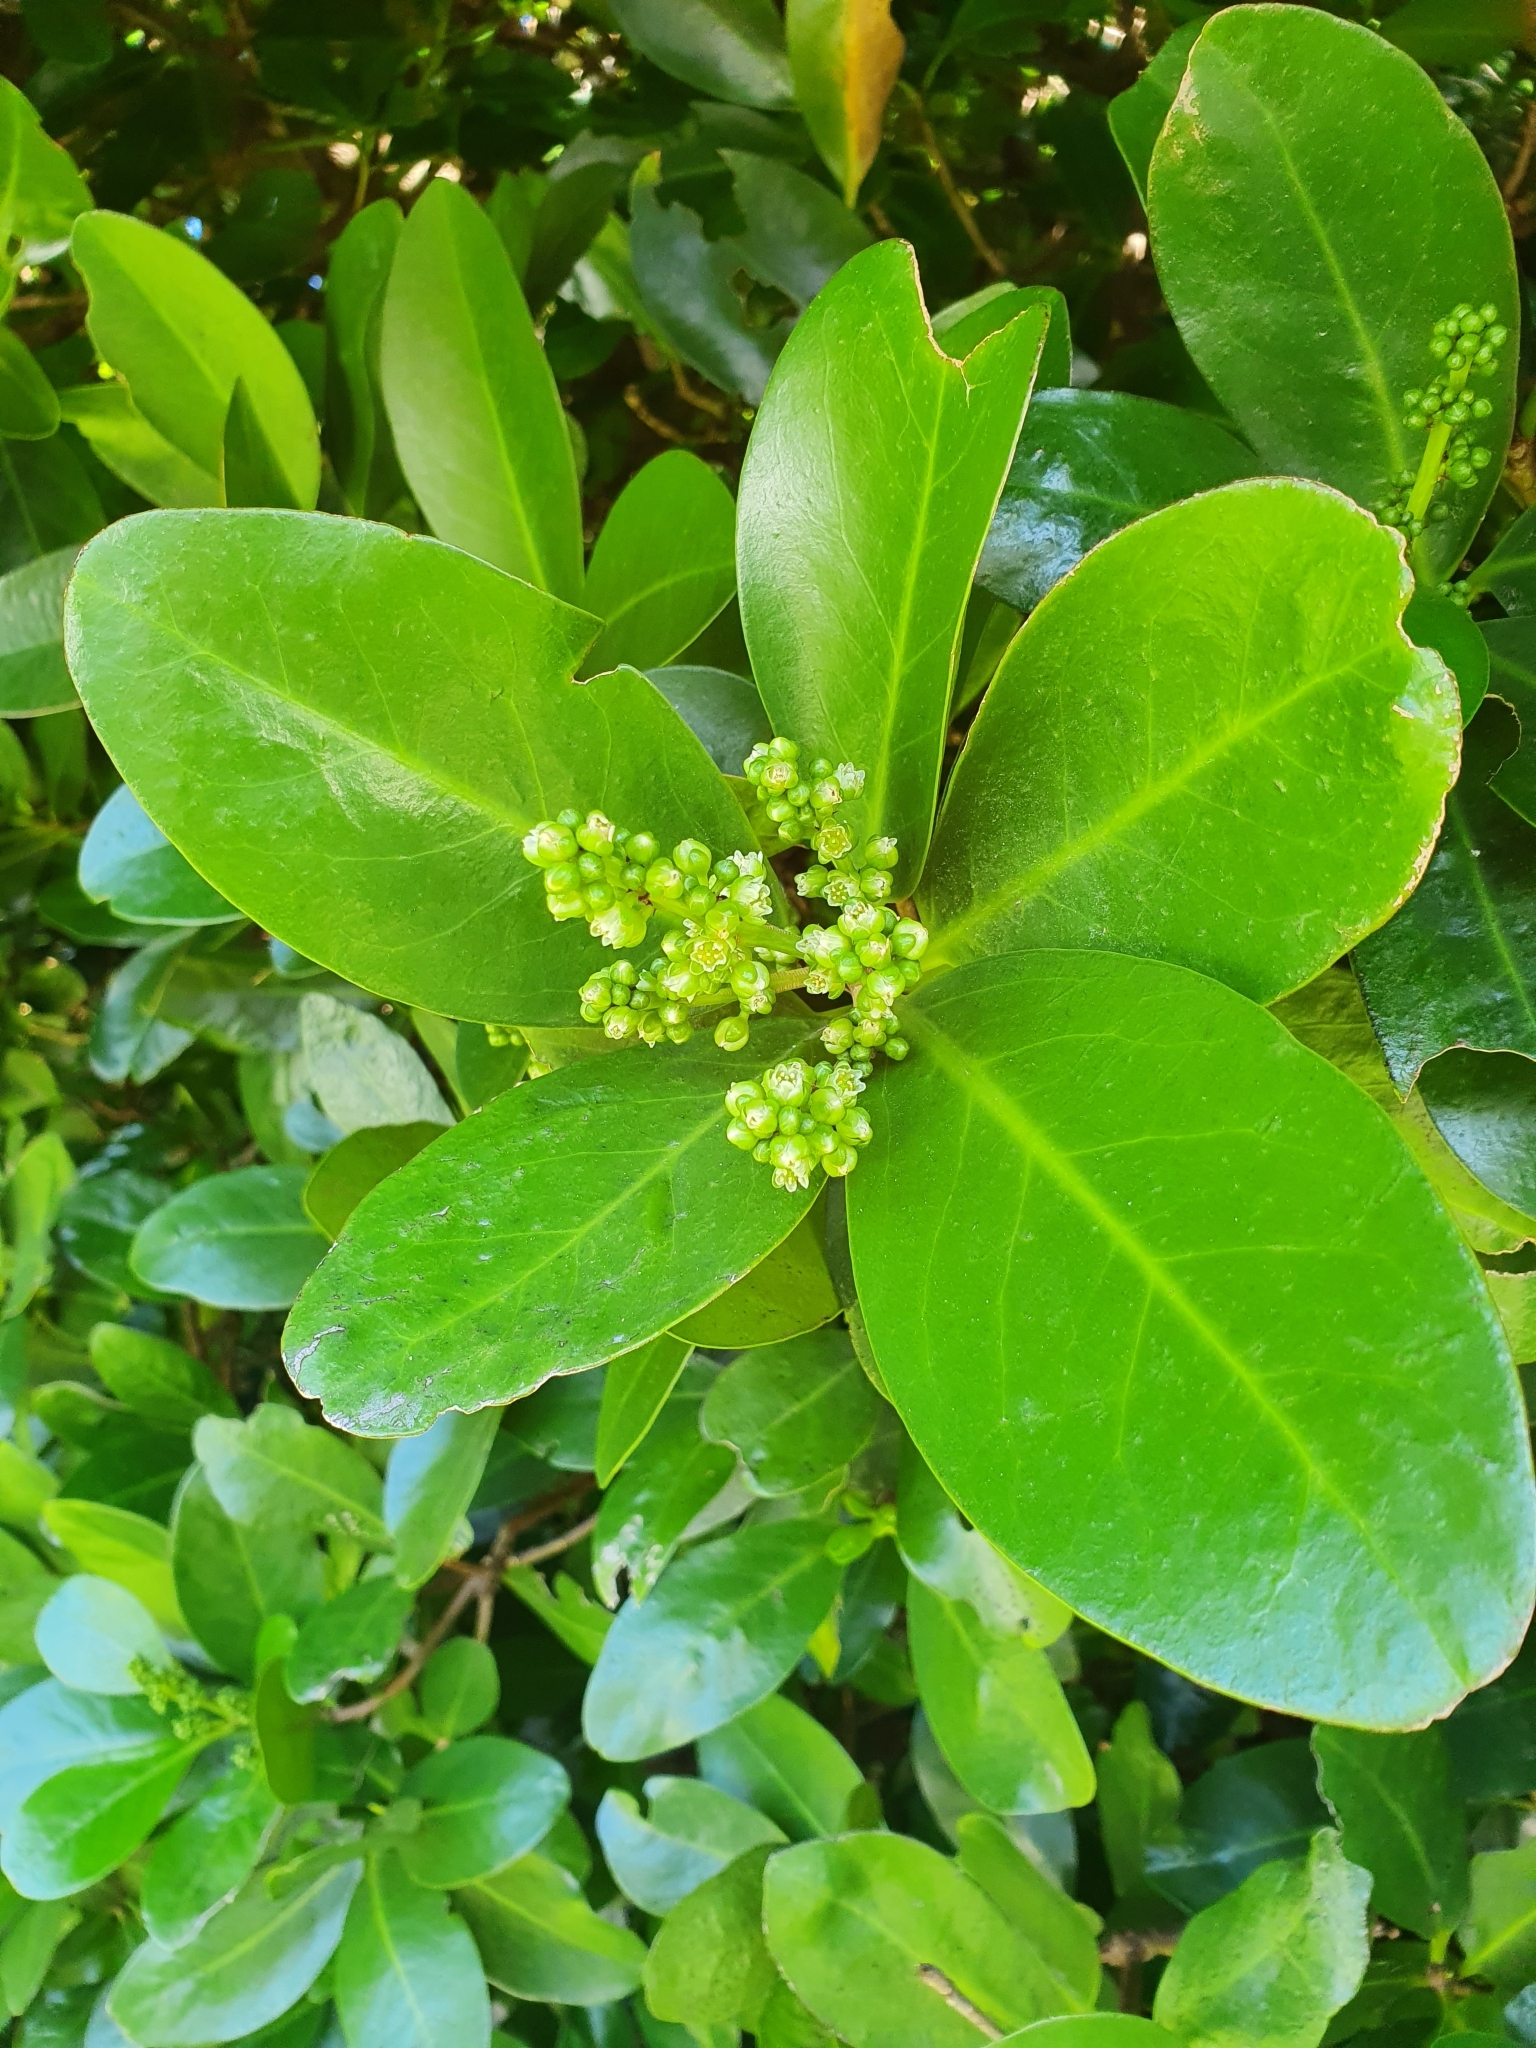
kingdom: Plantae
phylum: Tracheophyta
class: Magnoliopsida
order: Cucurbitales
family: Corynocarpaceae
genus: Corynocarpus
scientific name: Corynocarpus laevigatus
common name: New zealand laurel
